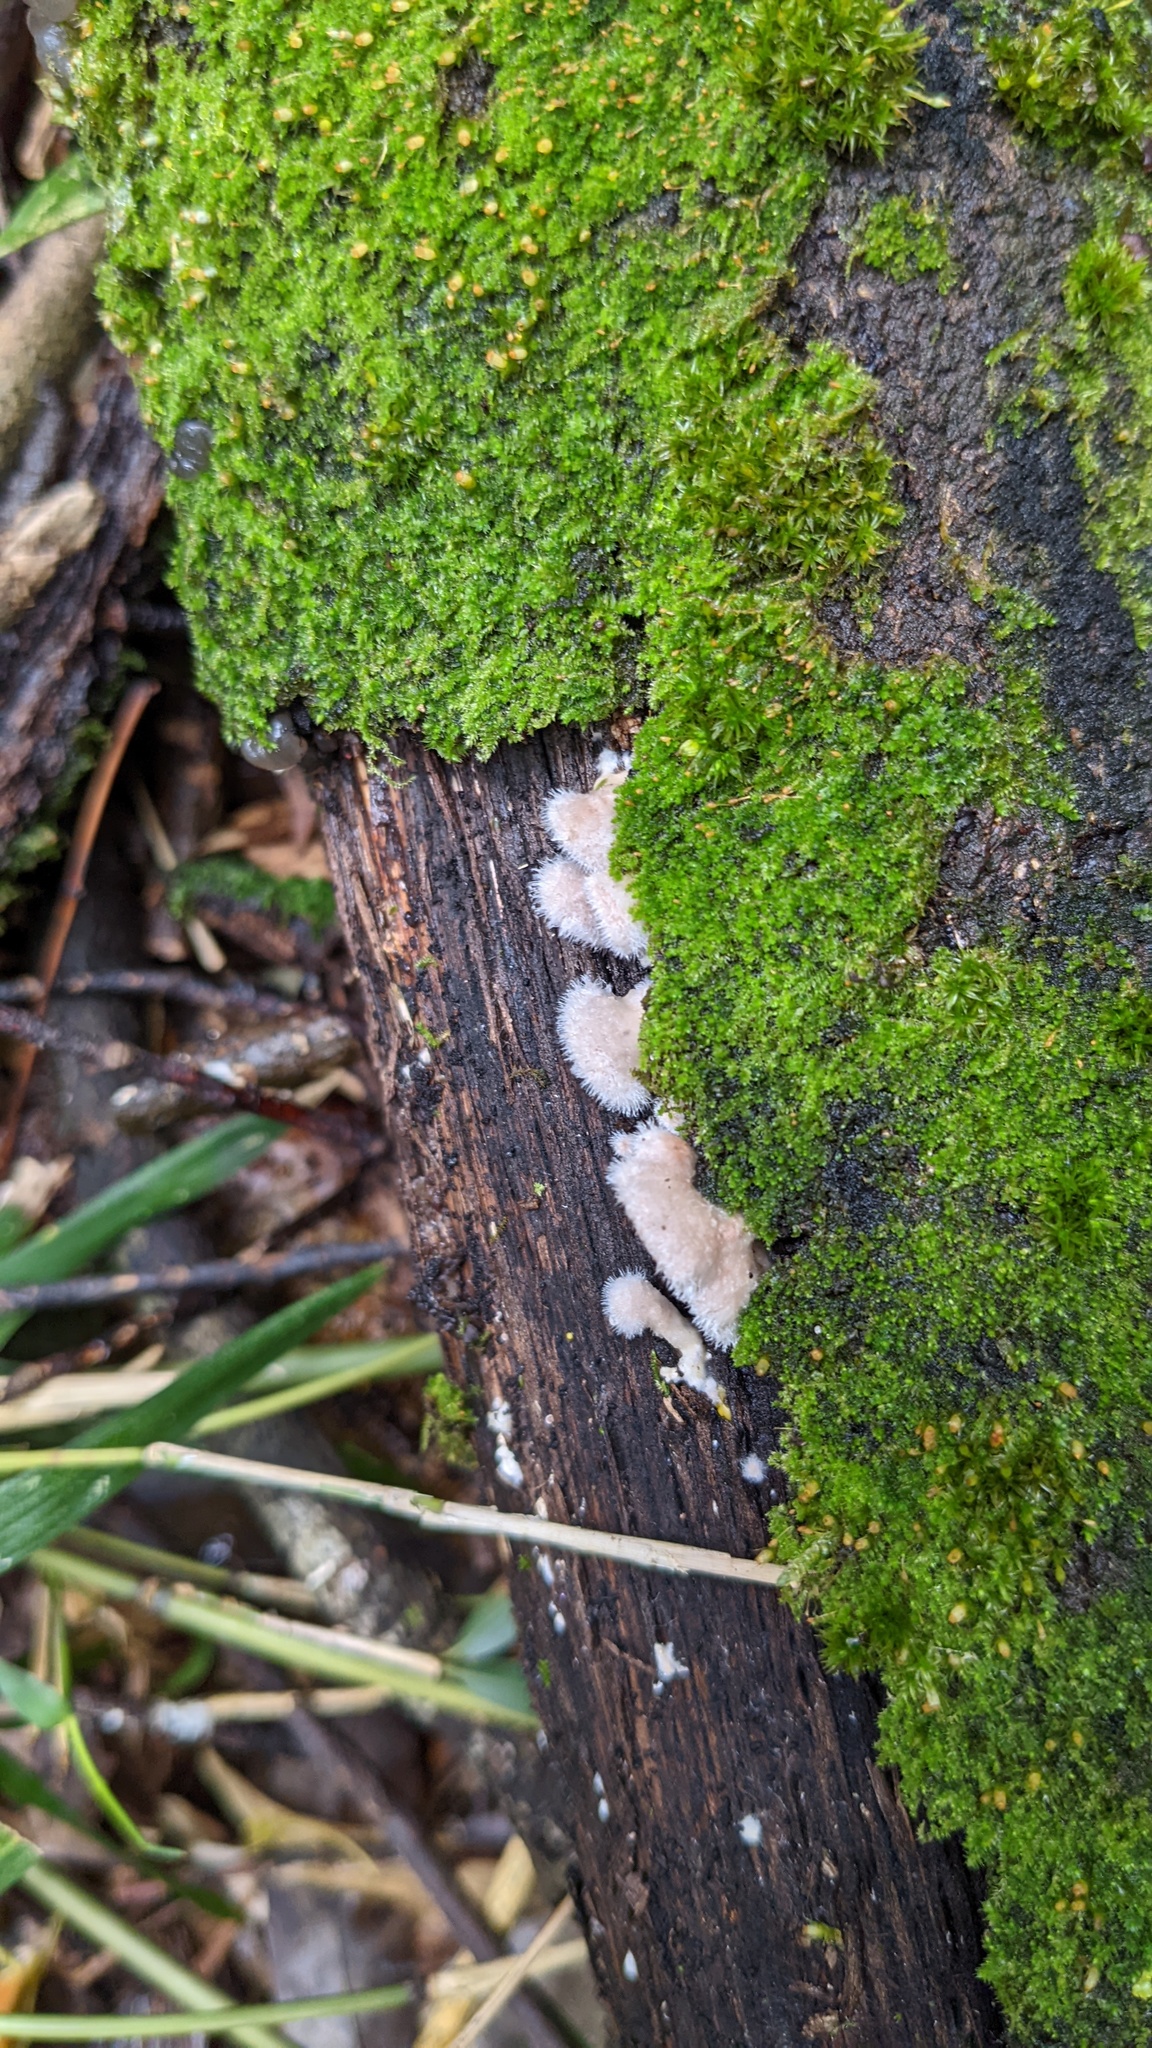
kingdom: Fungi
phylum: Basidiomycota
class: Agaricomycetes
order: Agaricales
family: Schizophyllaceae
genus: Schizophyllum
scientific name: Schizophyllum commune
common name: Common porecrust
